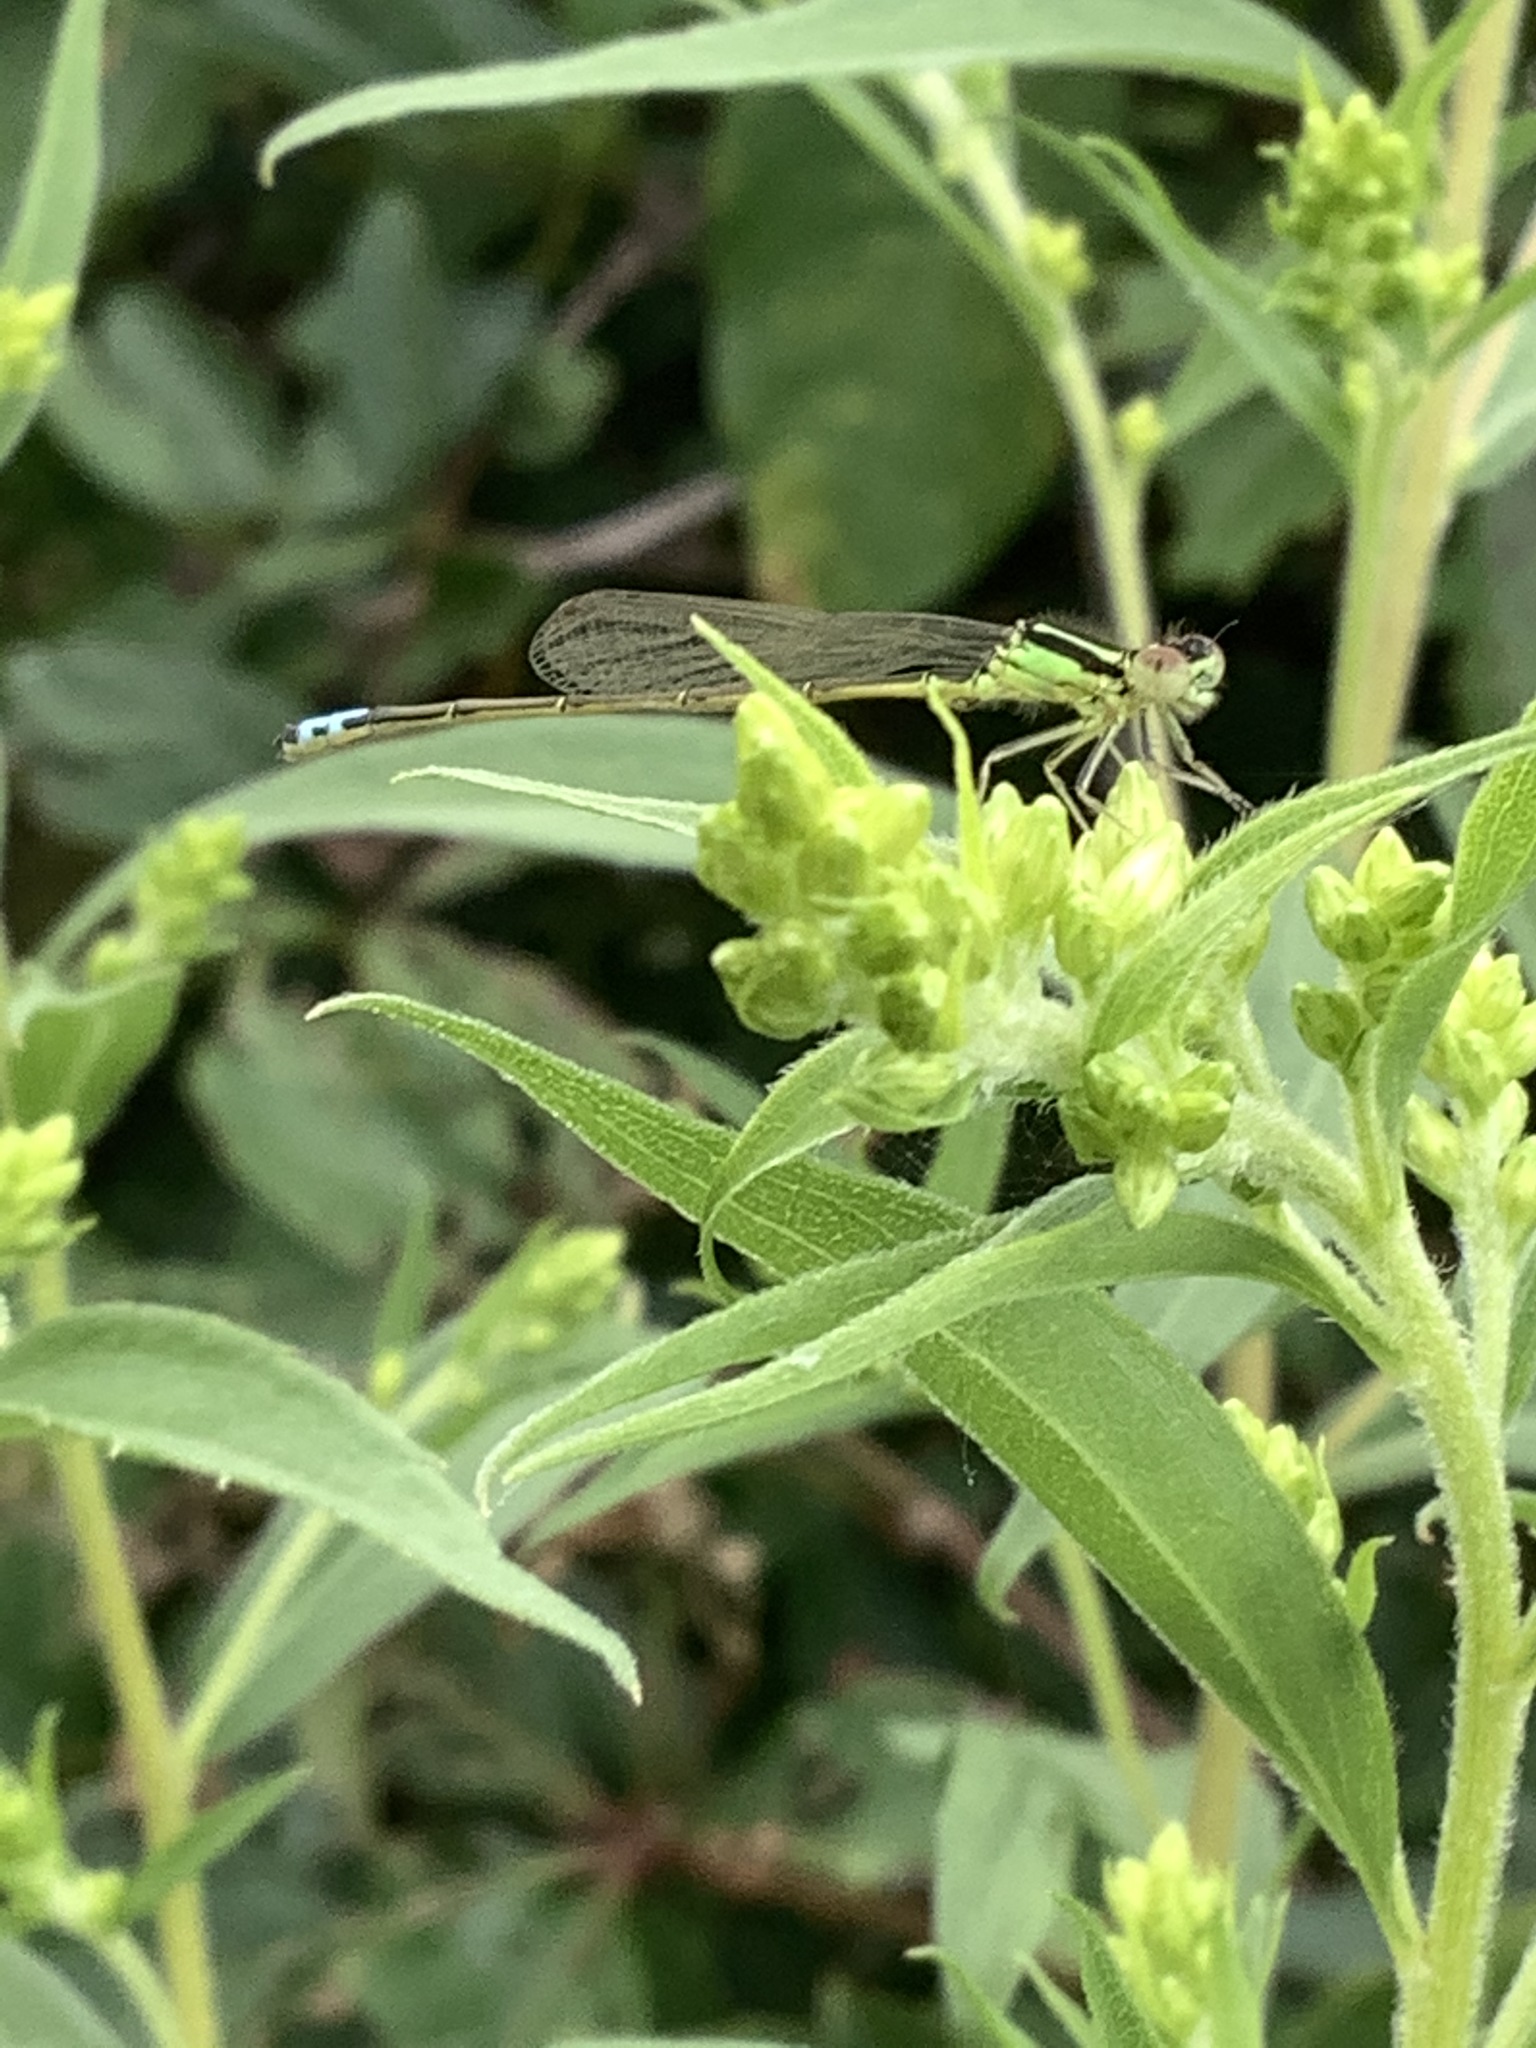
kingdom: Animalia
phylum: Arthropoda
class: Insecta
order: Odonata
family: Coenagrionidae
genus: Ischnura
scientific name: Ischnura verticalis
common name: Eastern forktail
